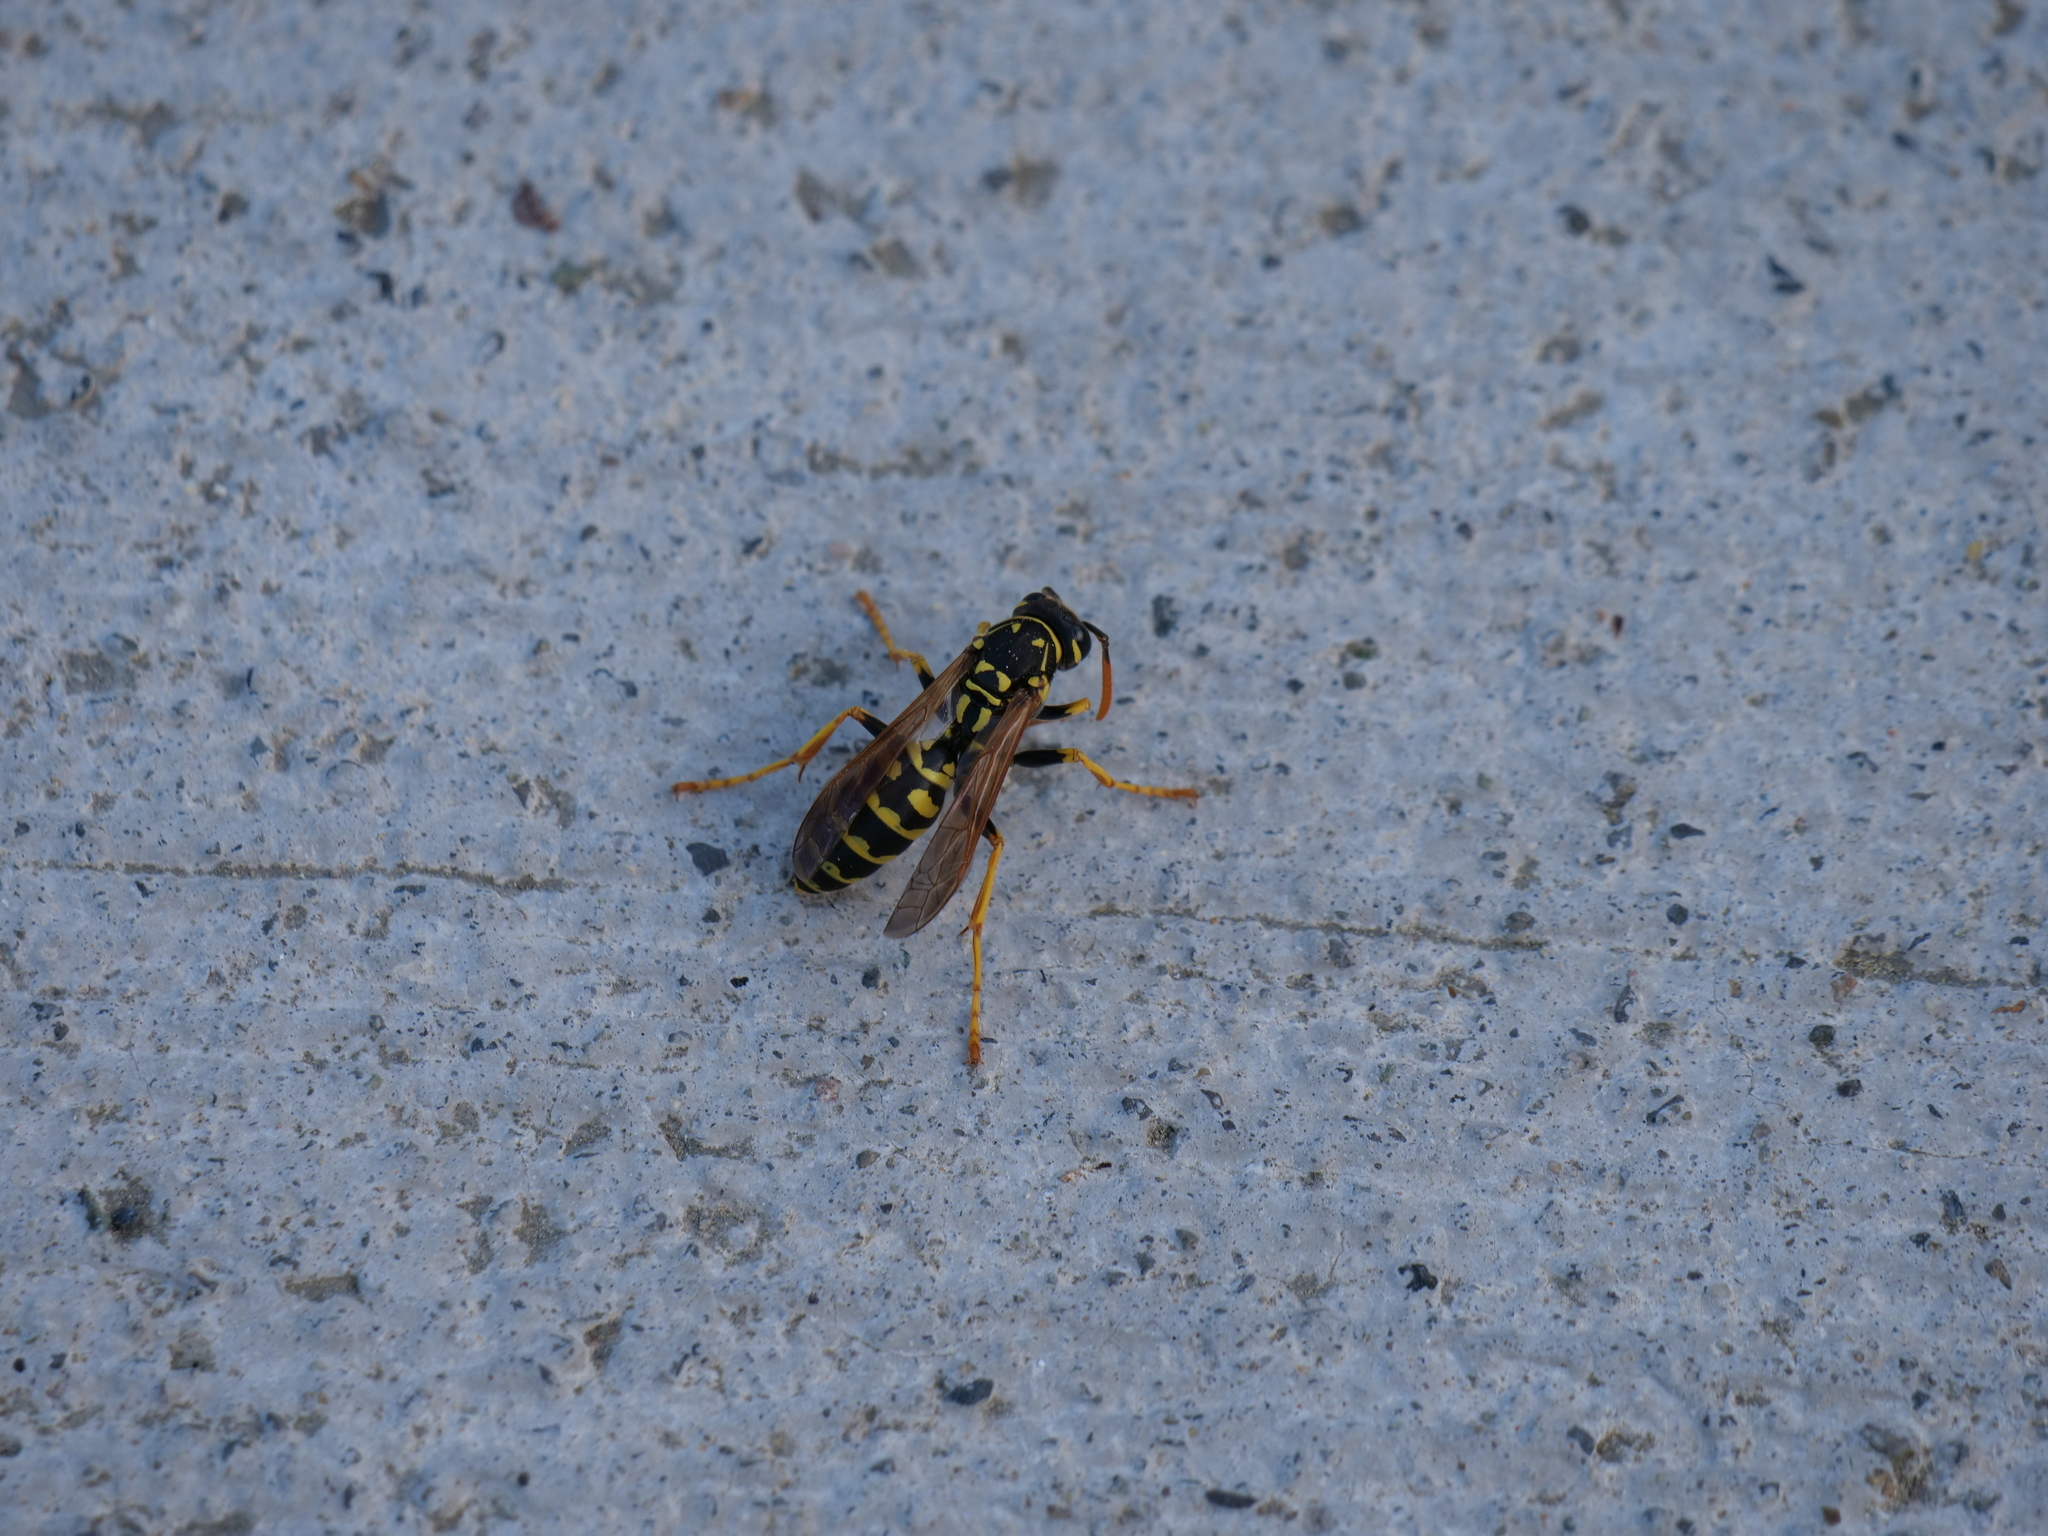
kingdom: Animalia
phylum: Arthropoda
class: Insecta
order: Hymenoptera
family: Eumenidae
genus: Polistes
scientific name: Polistes dominula
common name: Paper wasp
